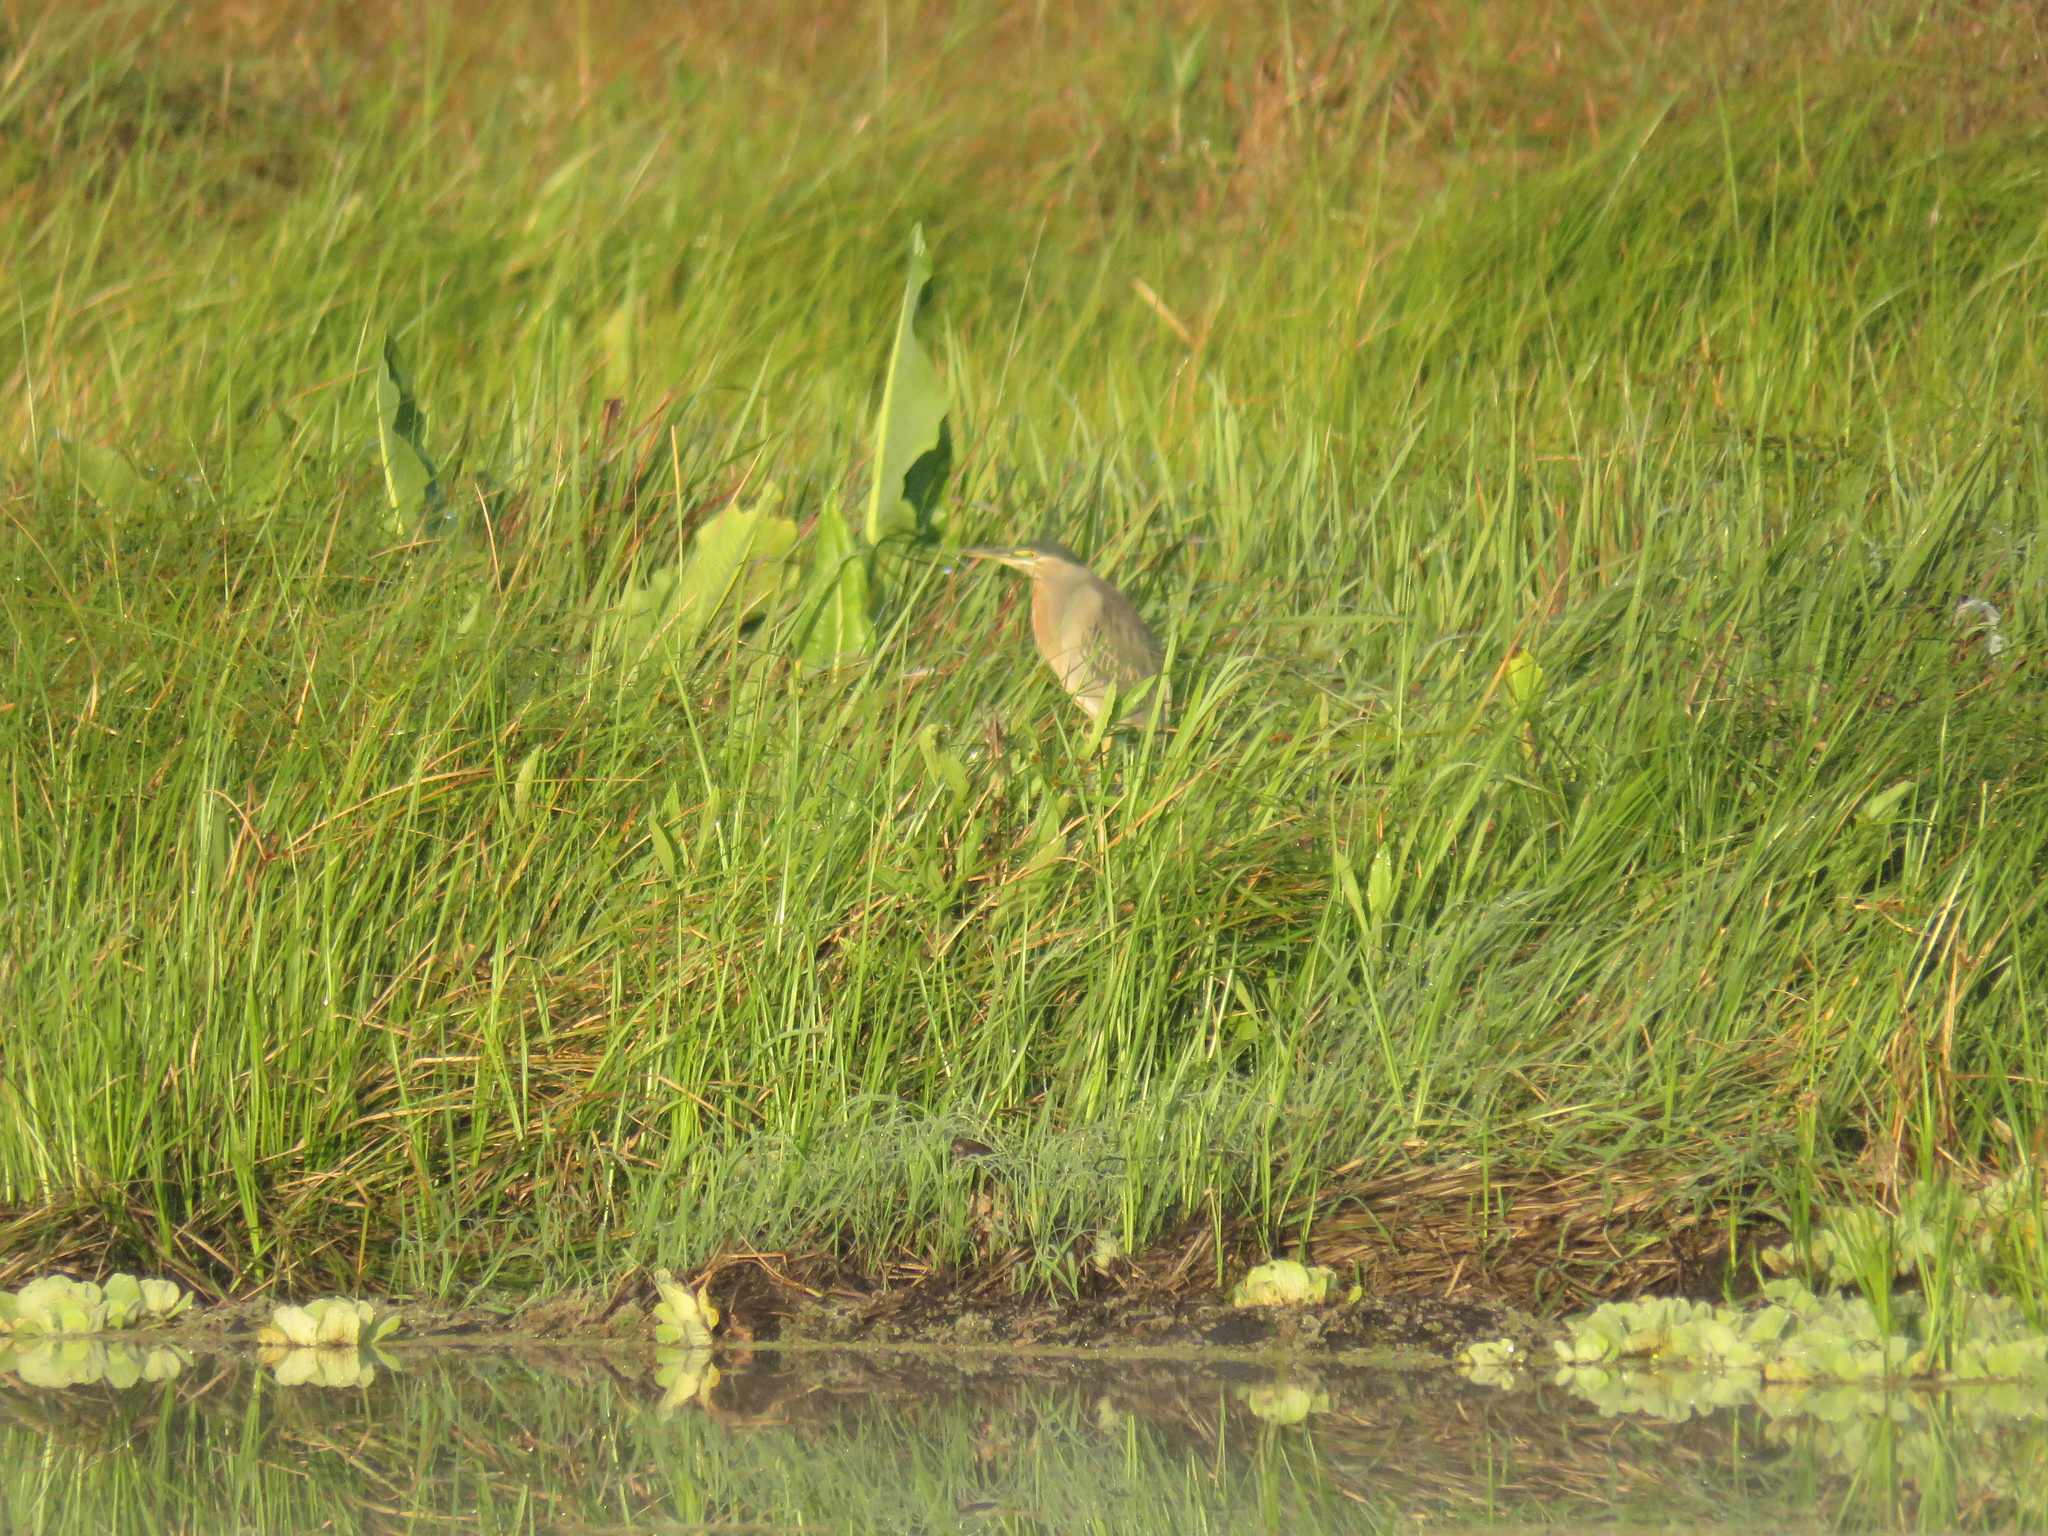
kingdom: Animalia
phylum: Chordata
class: Aves
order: Pelecaniformes
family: Ardeidae
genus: Butorides
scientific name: Butorides striata
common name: Striated heron
